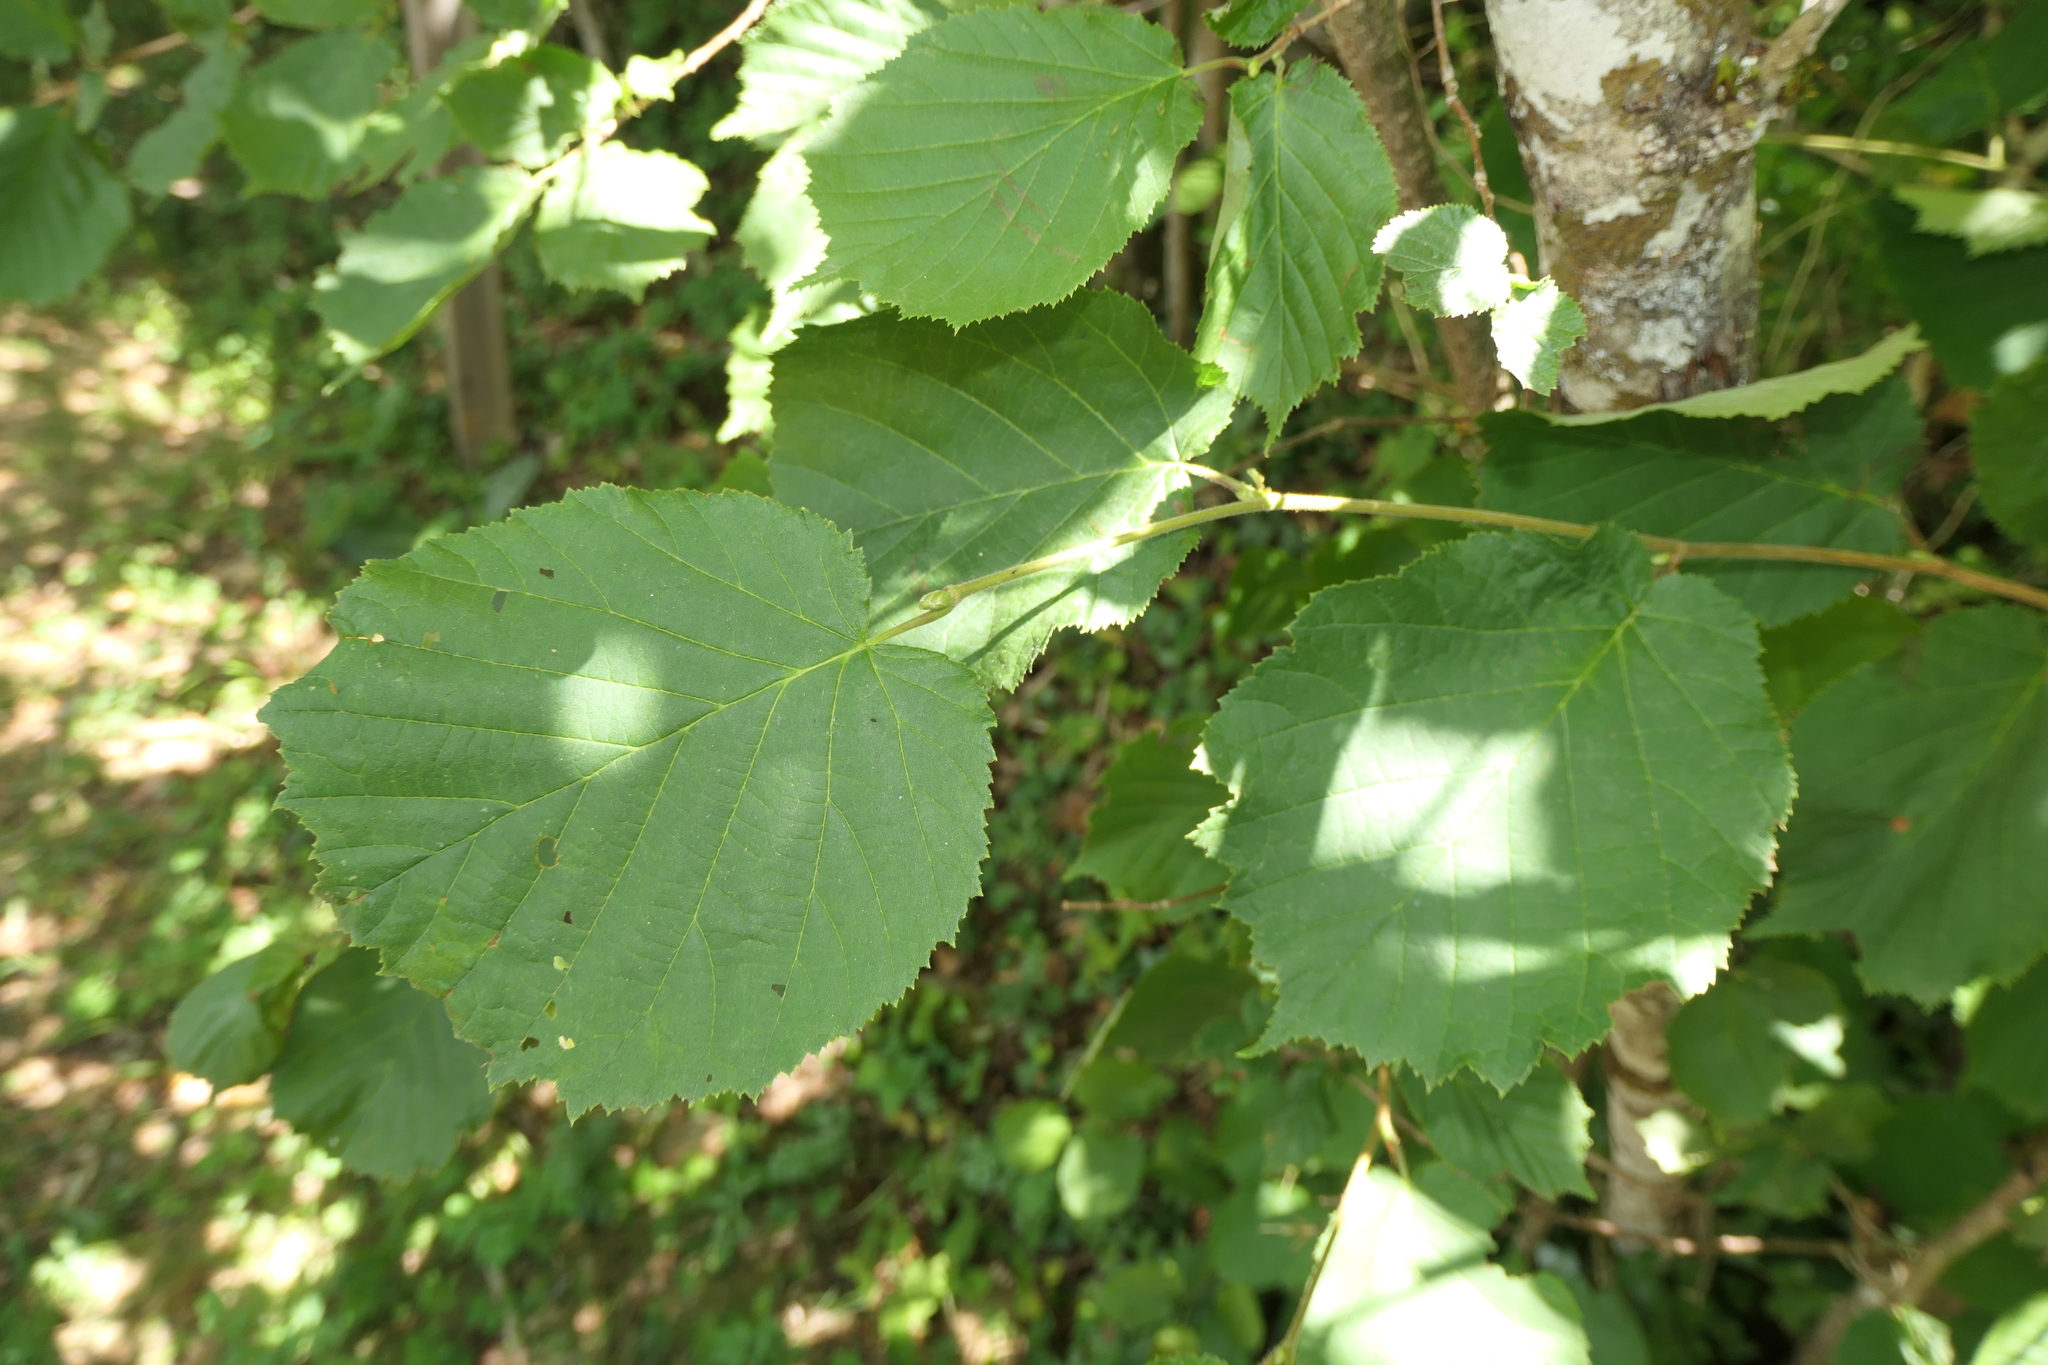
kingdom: Plantae
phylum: Tracheophyta
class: Magnoliopsida
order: Fagales
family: Betulaceae
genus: Corylus
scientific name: Corylus avellana
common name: European hazel
